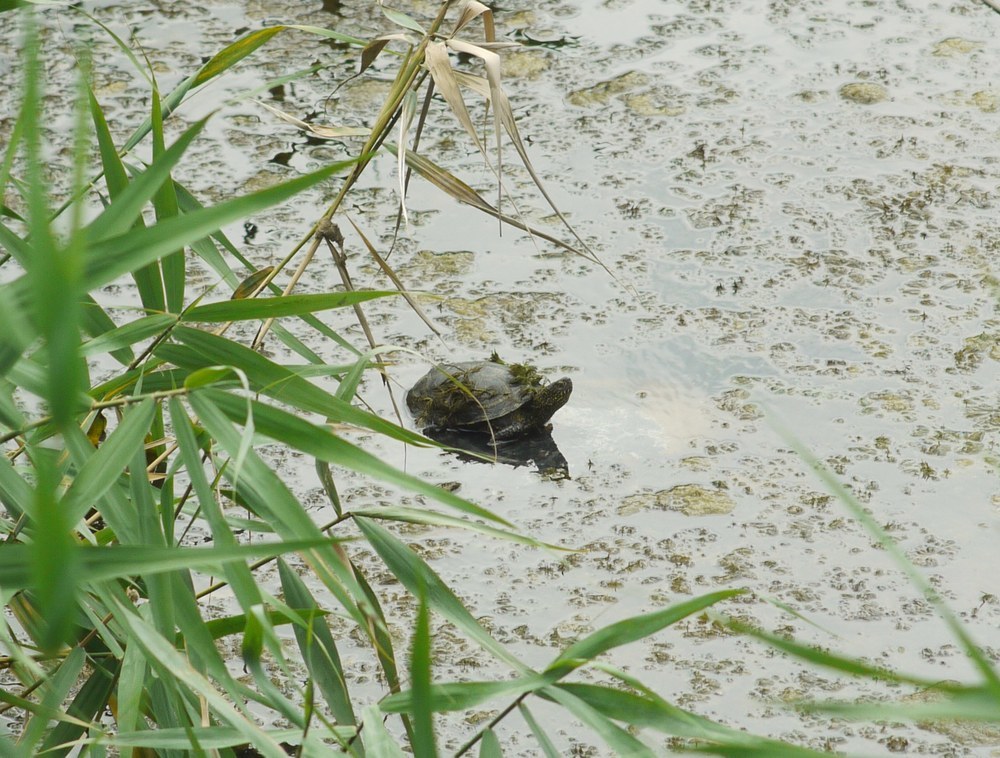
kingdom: Animalia
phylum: Chordata
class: Testudines
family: Emydidae
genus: Emys
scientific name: Emys orbicularis
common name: European pond turtle
